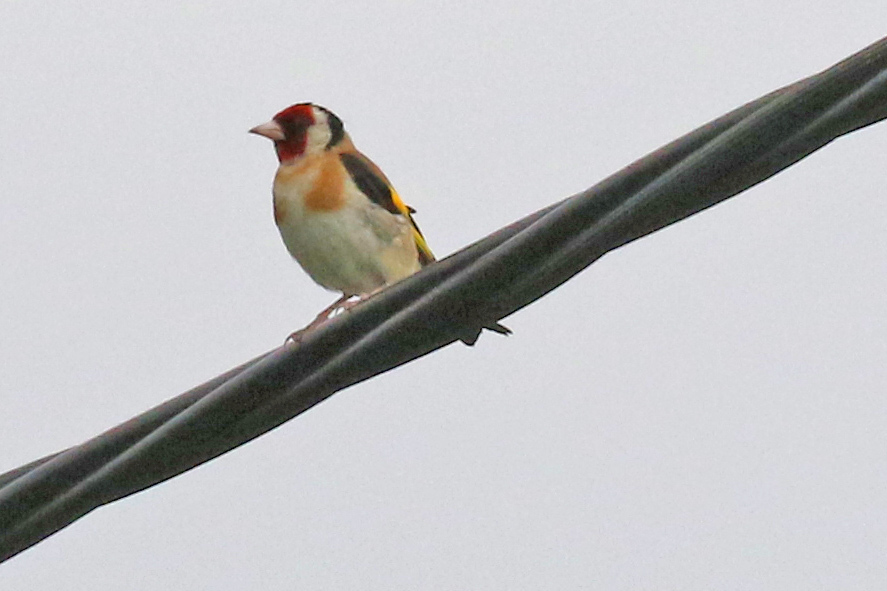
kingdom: Animalia
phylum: Chordata
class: Aves
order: Passeriformes
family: Fringillidae
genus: Carduelis
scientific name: Carduelis carduelis
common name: European goldfinch
